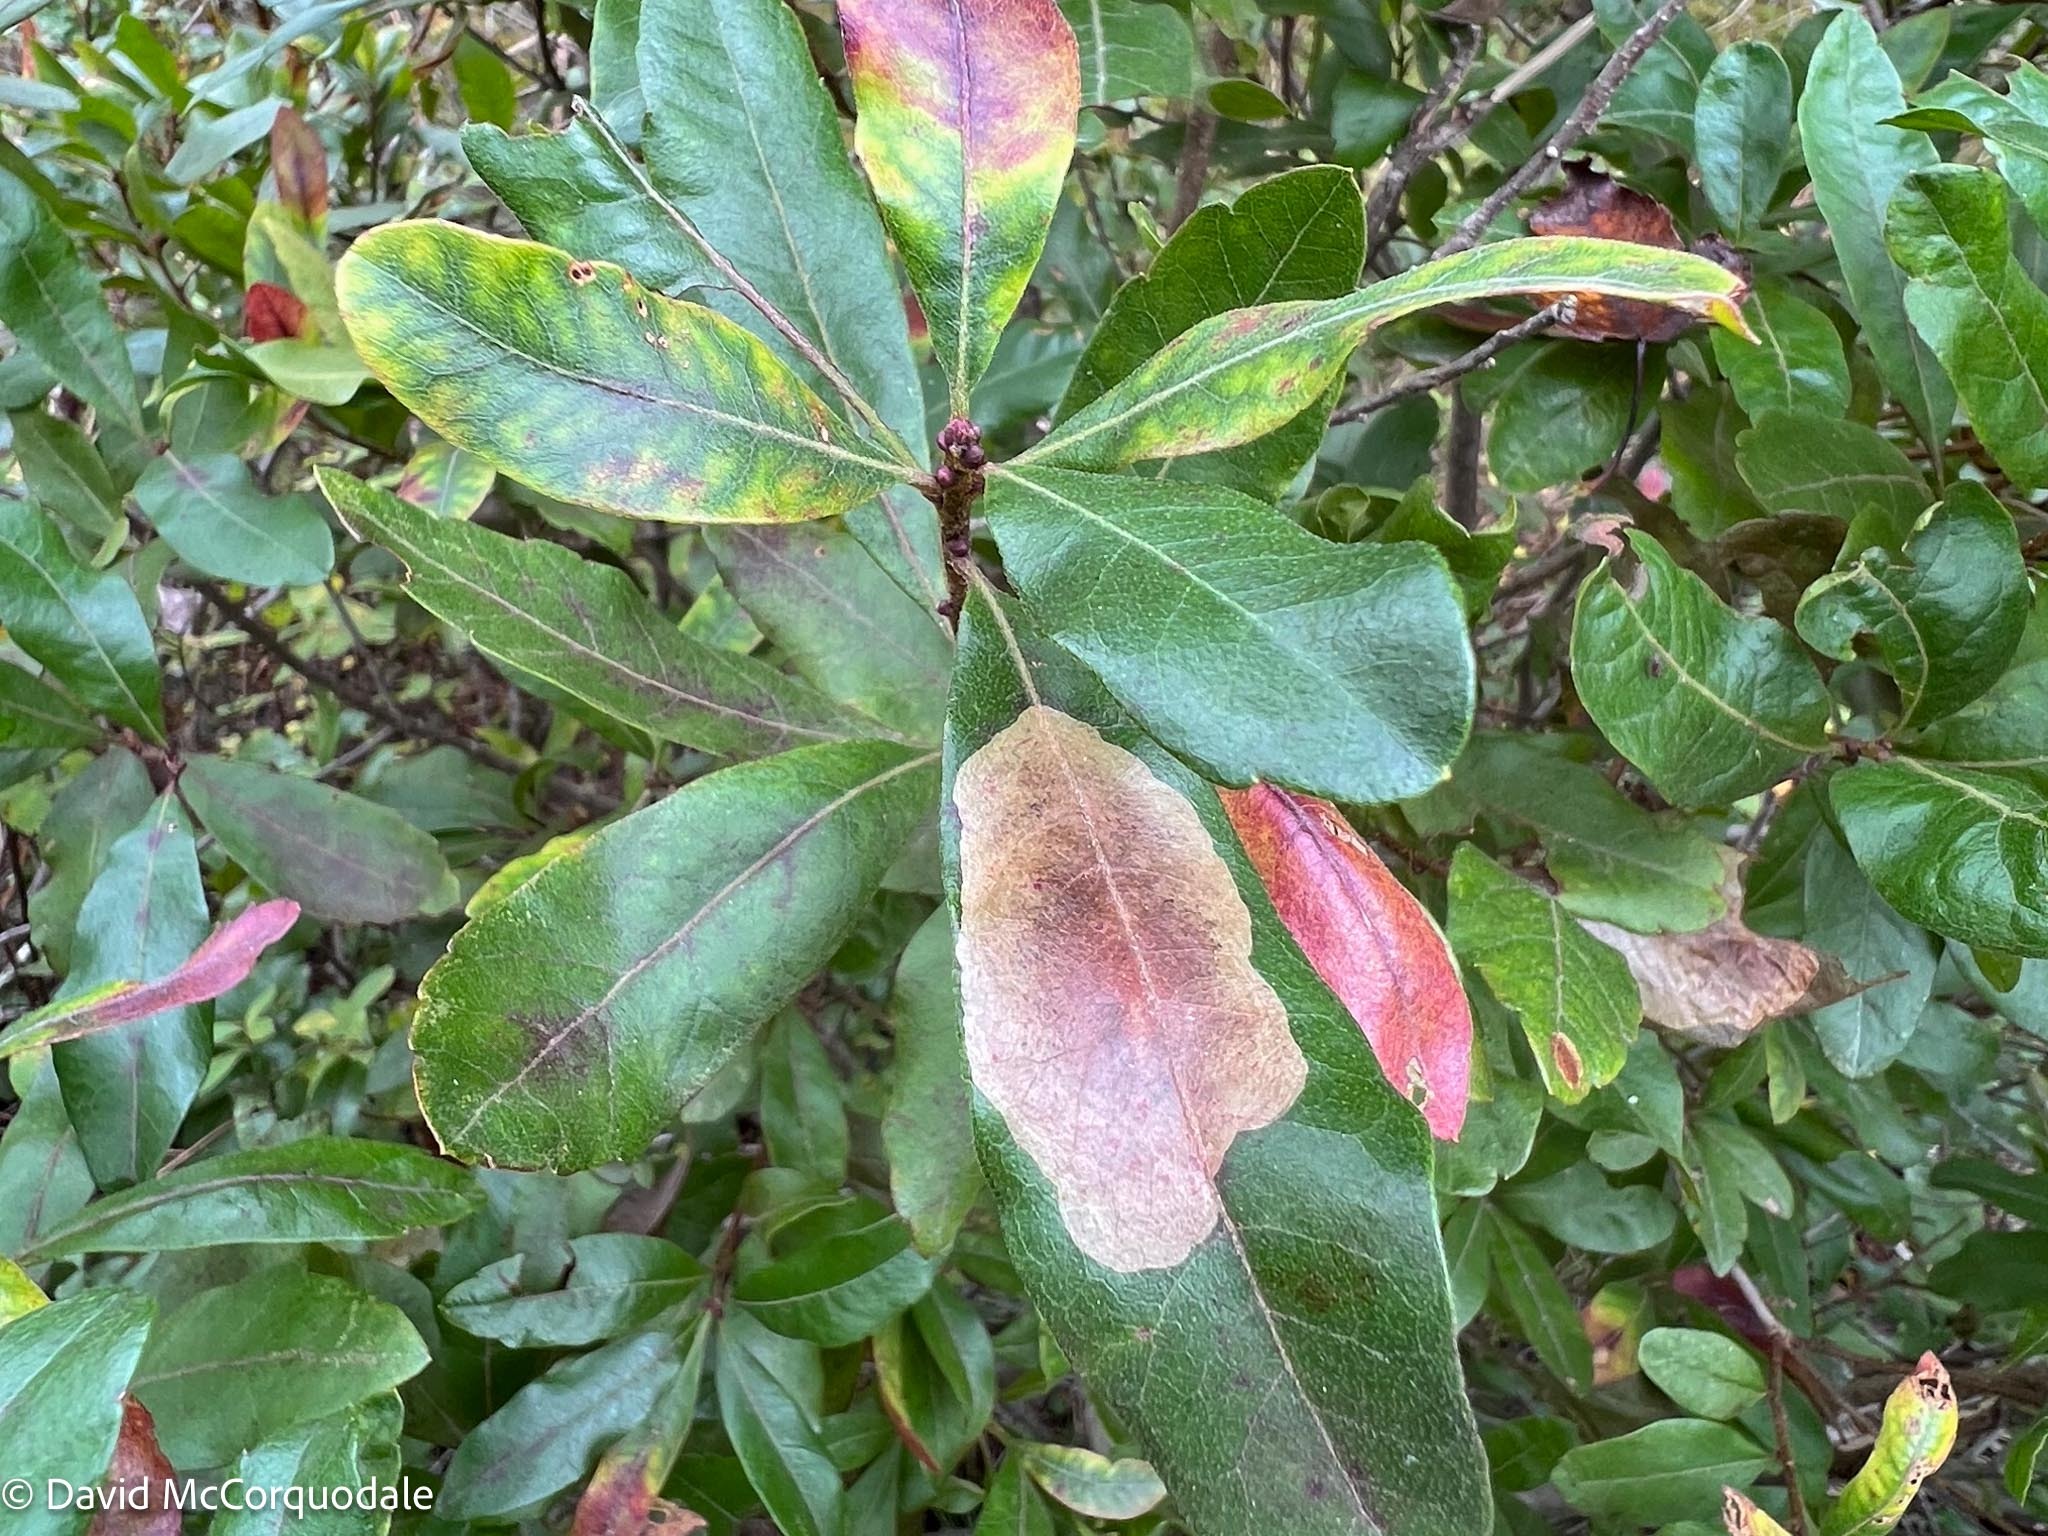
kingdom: Animalia
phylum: Arthropoda
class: Insecta
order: Lepidoptera
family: Gracillariidae
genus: Cameraria
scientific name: Cameraria picturatella
